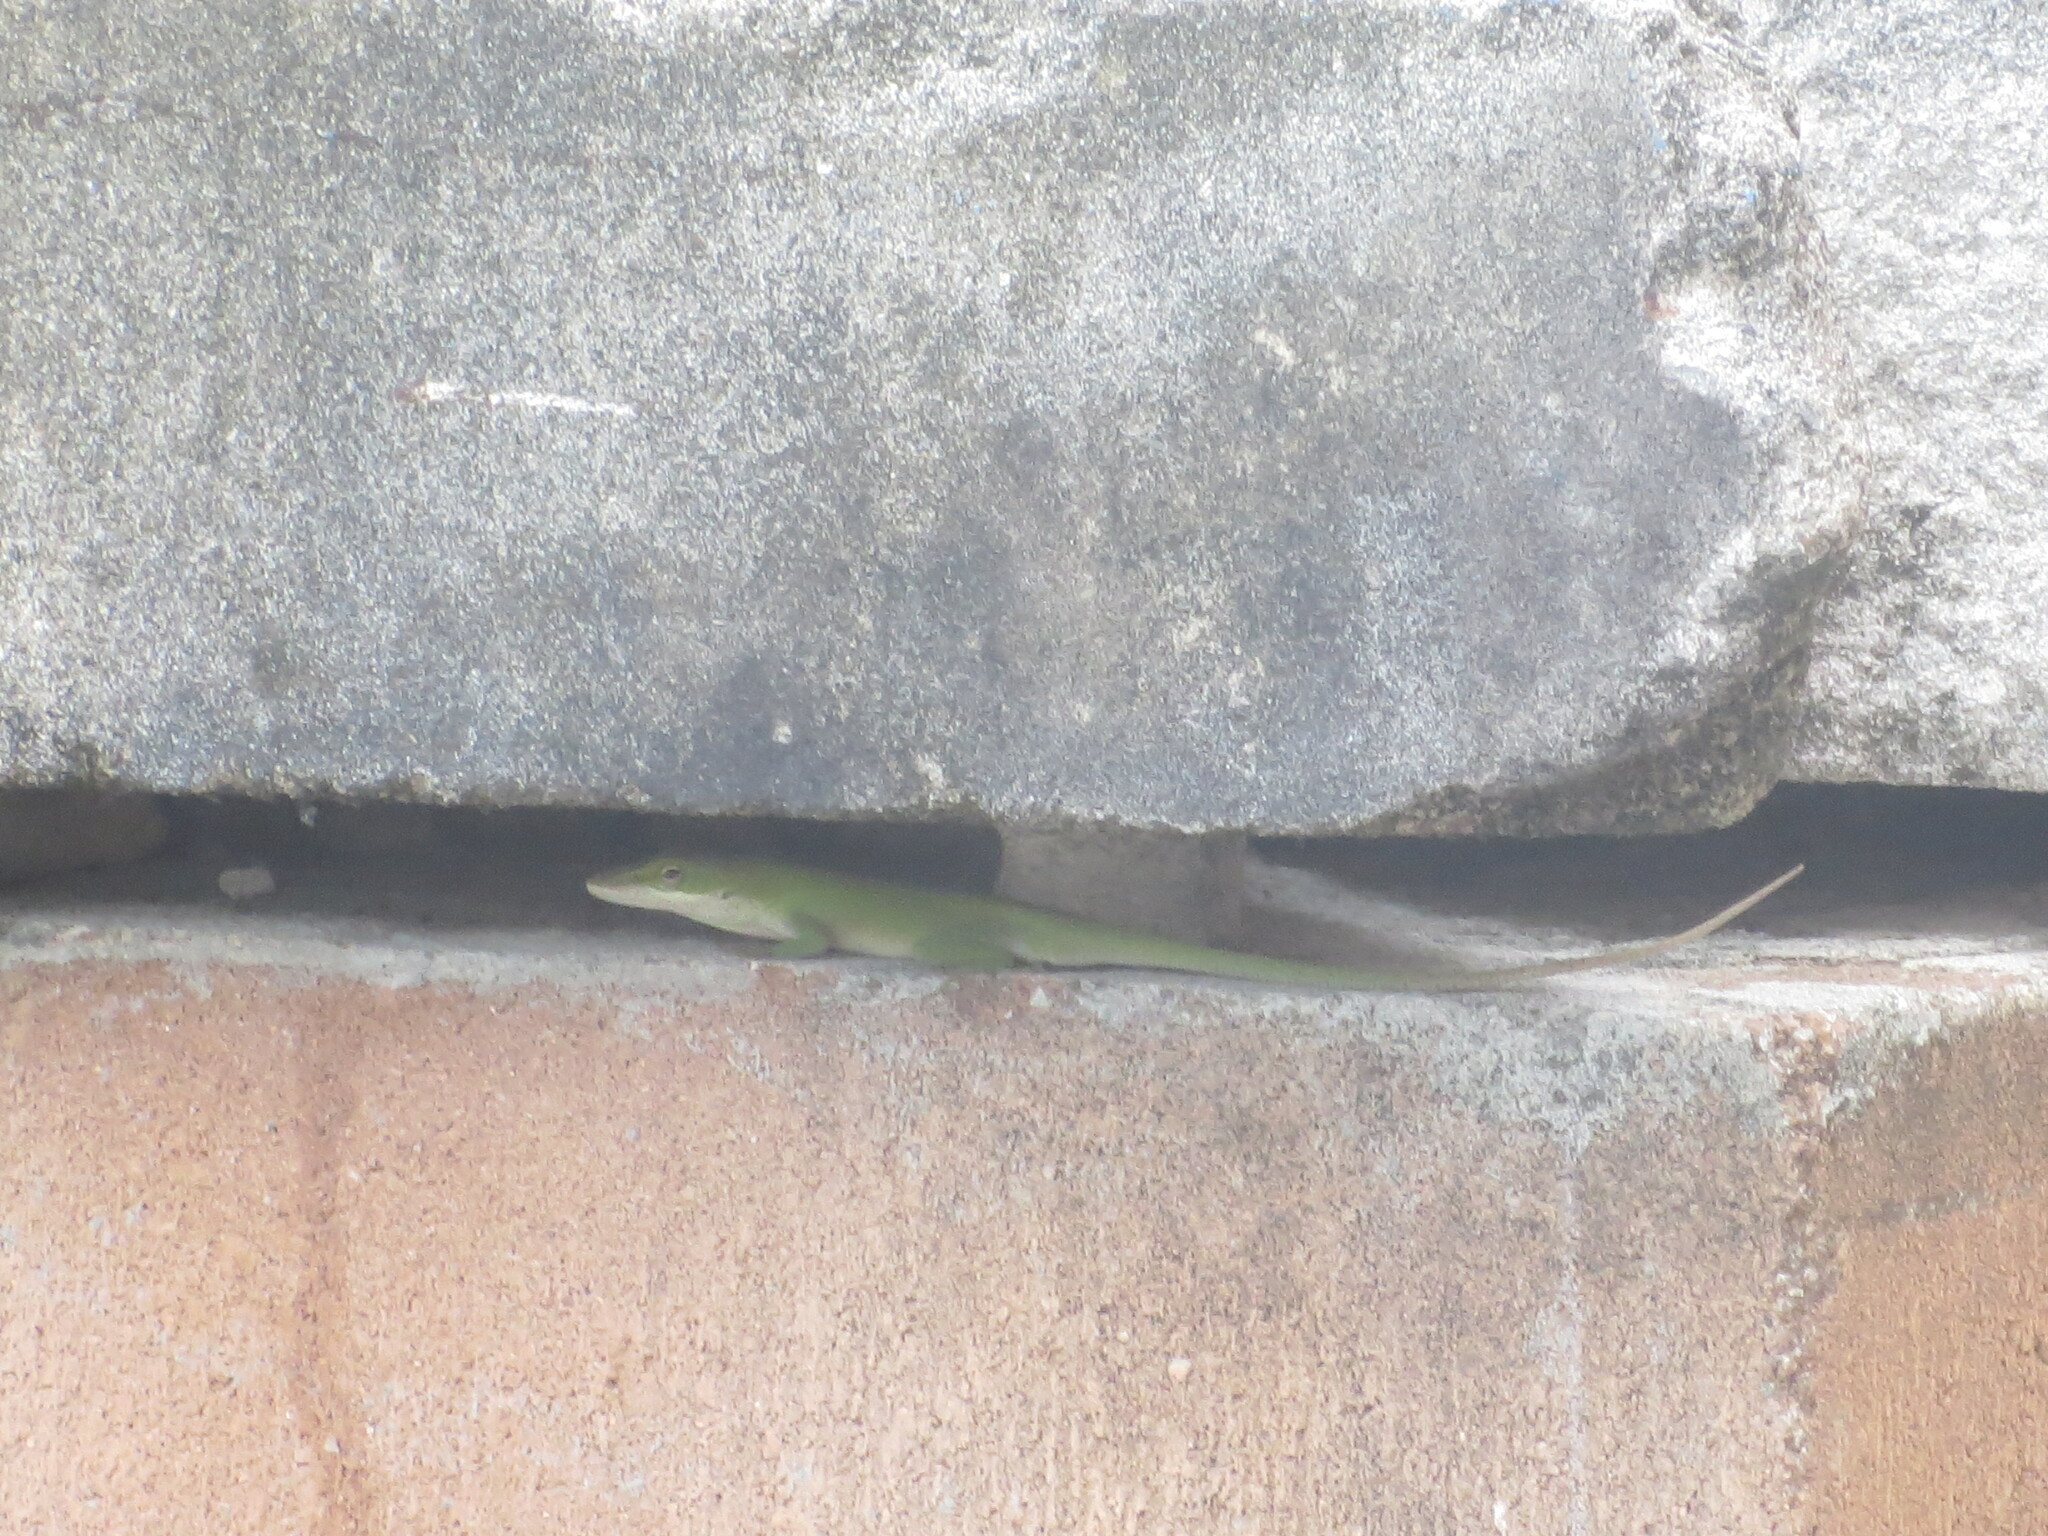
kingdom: Animalia
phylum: Chordata
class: Squamata
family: Dactyloidae
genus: Anolis
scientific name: Anolis carolinensis
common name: Green anole
